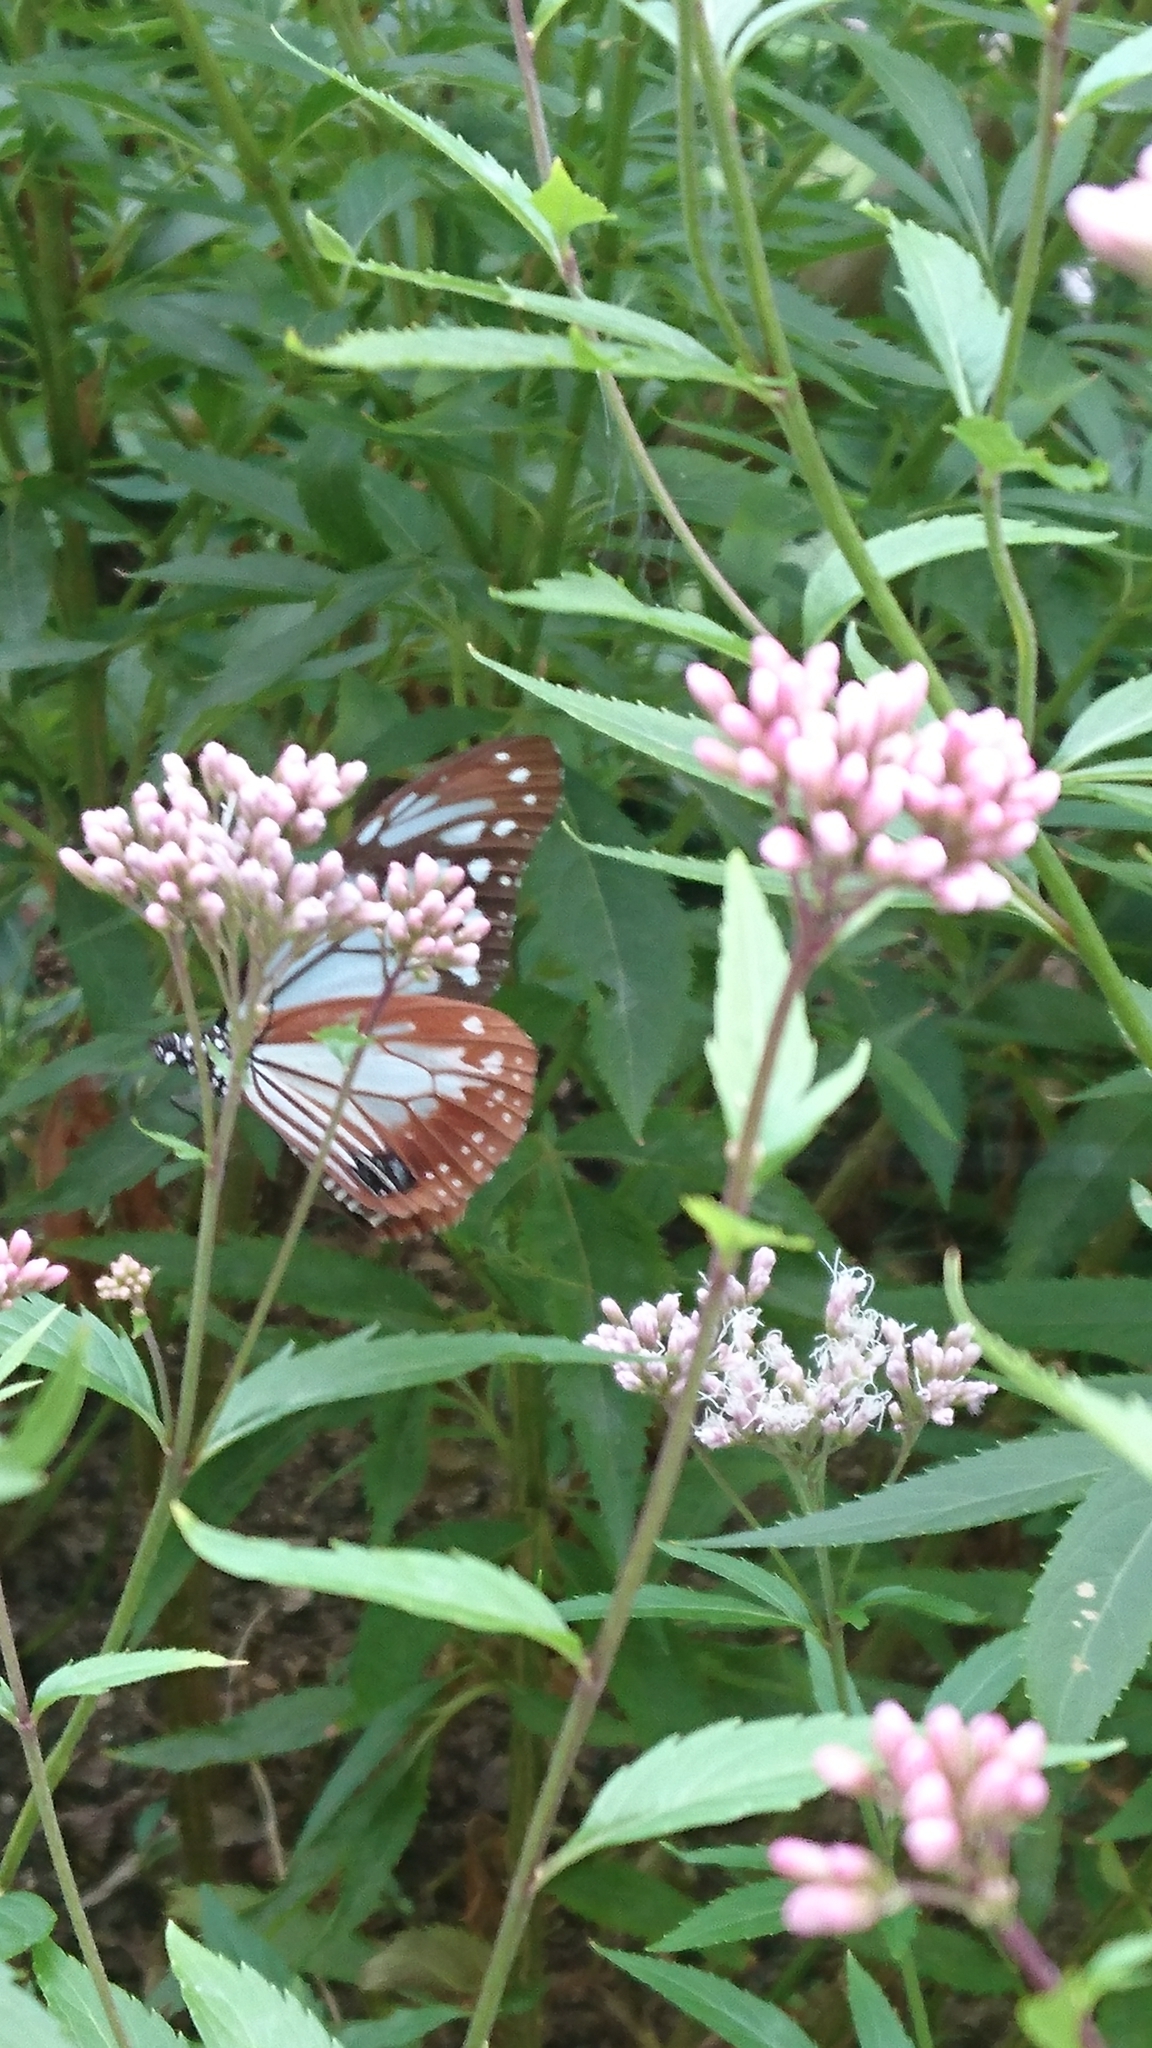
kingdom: Animalia
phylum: Arthropoda
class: Insecta
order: Lepidoptera
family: Nymphalidae
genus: Parantica
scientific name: Parantica sita
